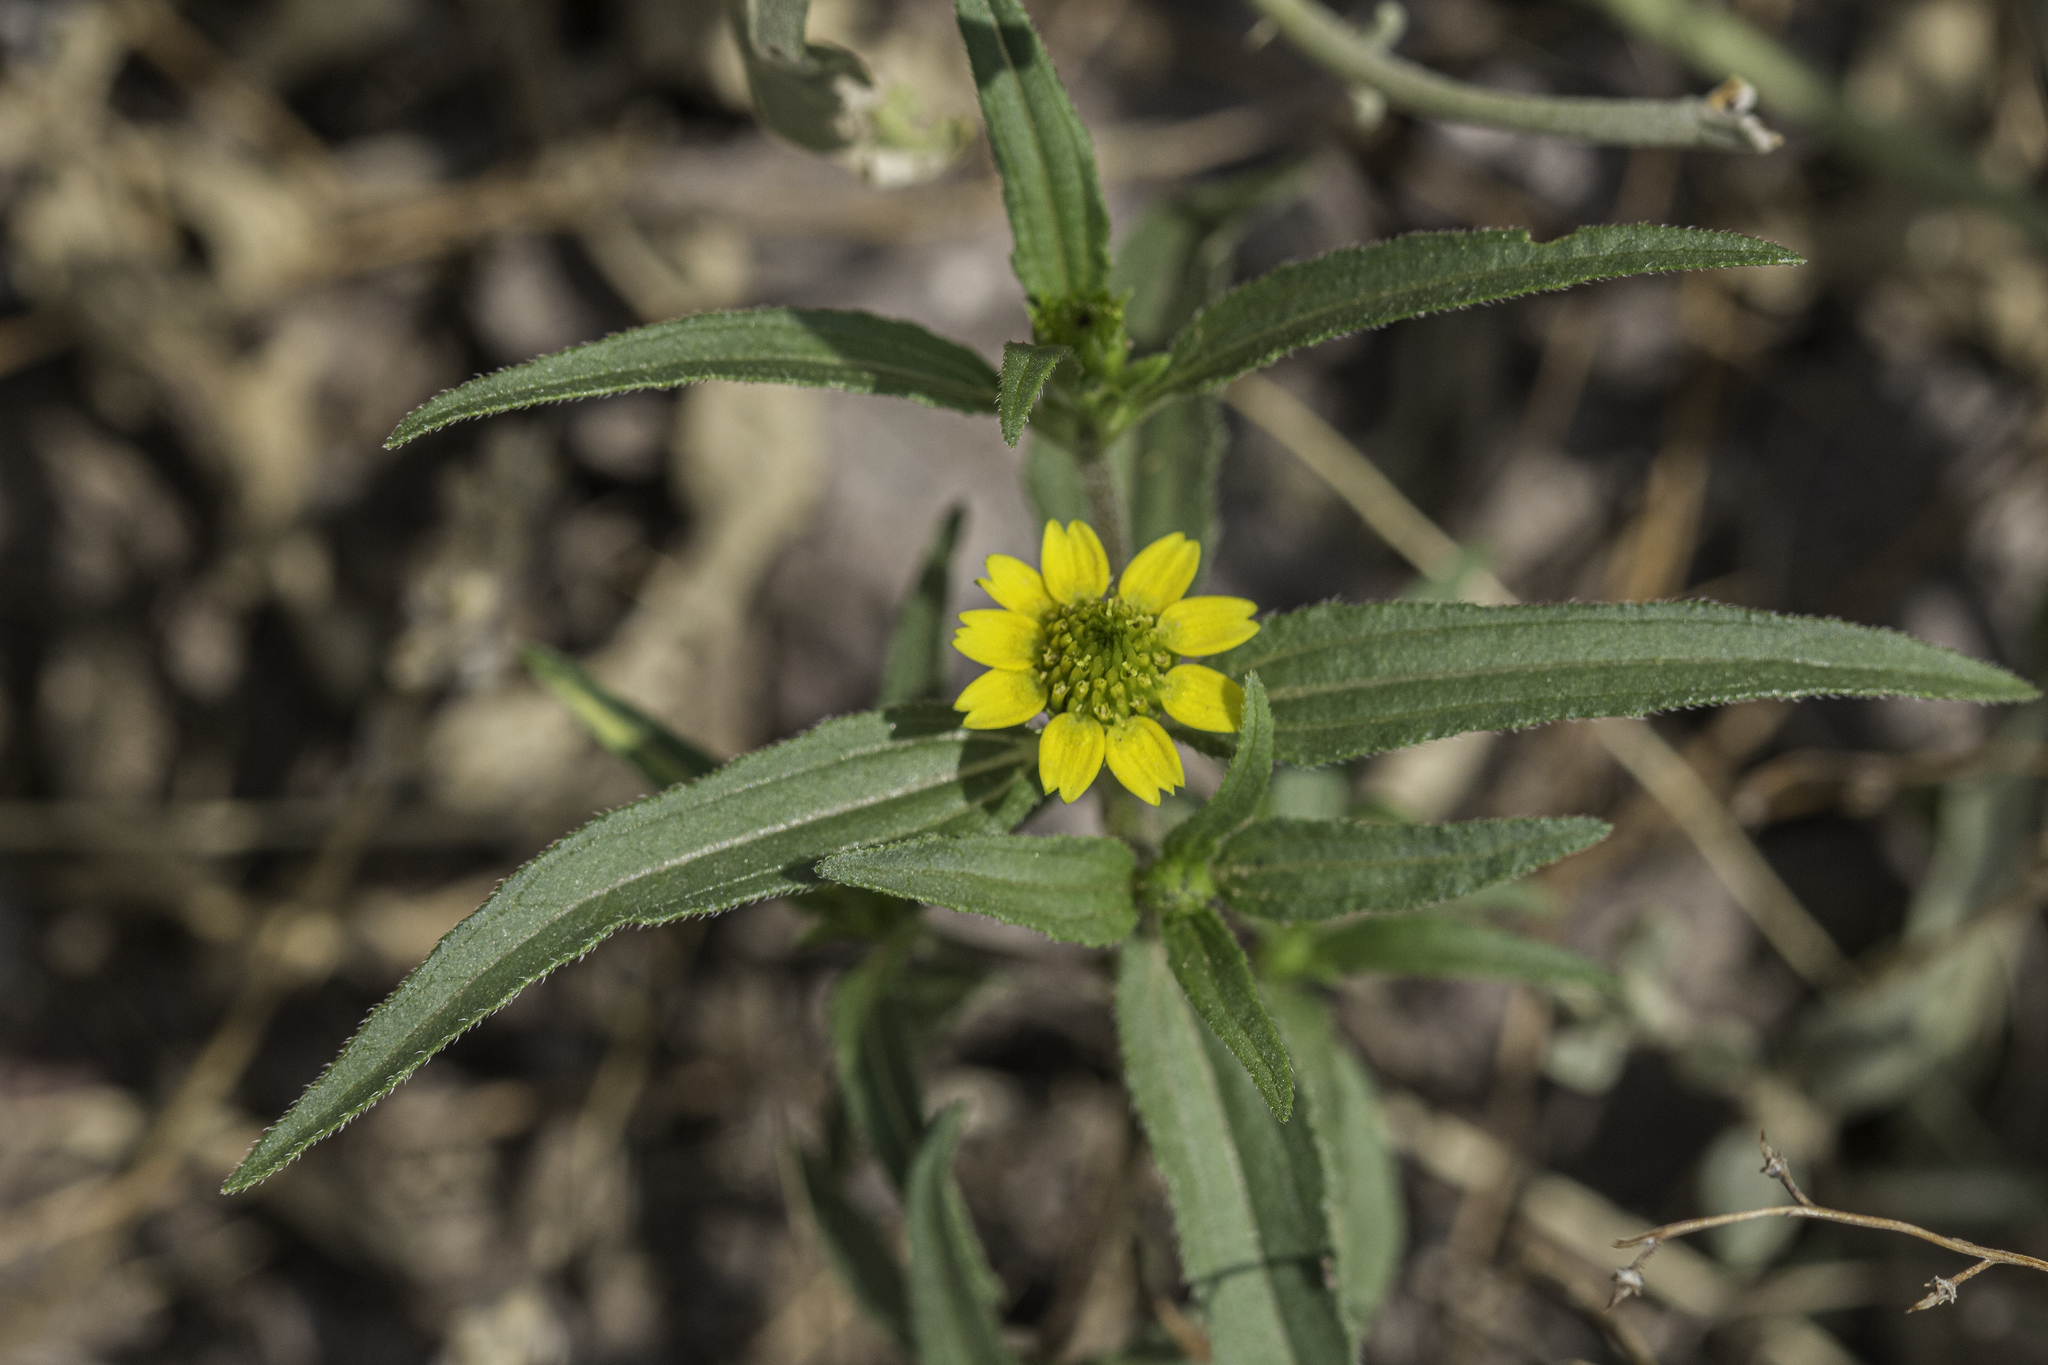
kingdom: Plantae
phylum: Tracheophyta
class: Magnoliopsida
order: Asterales
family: Asteraceae
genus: Sanvitalia
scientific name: Sanvitalia abertii
